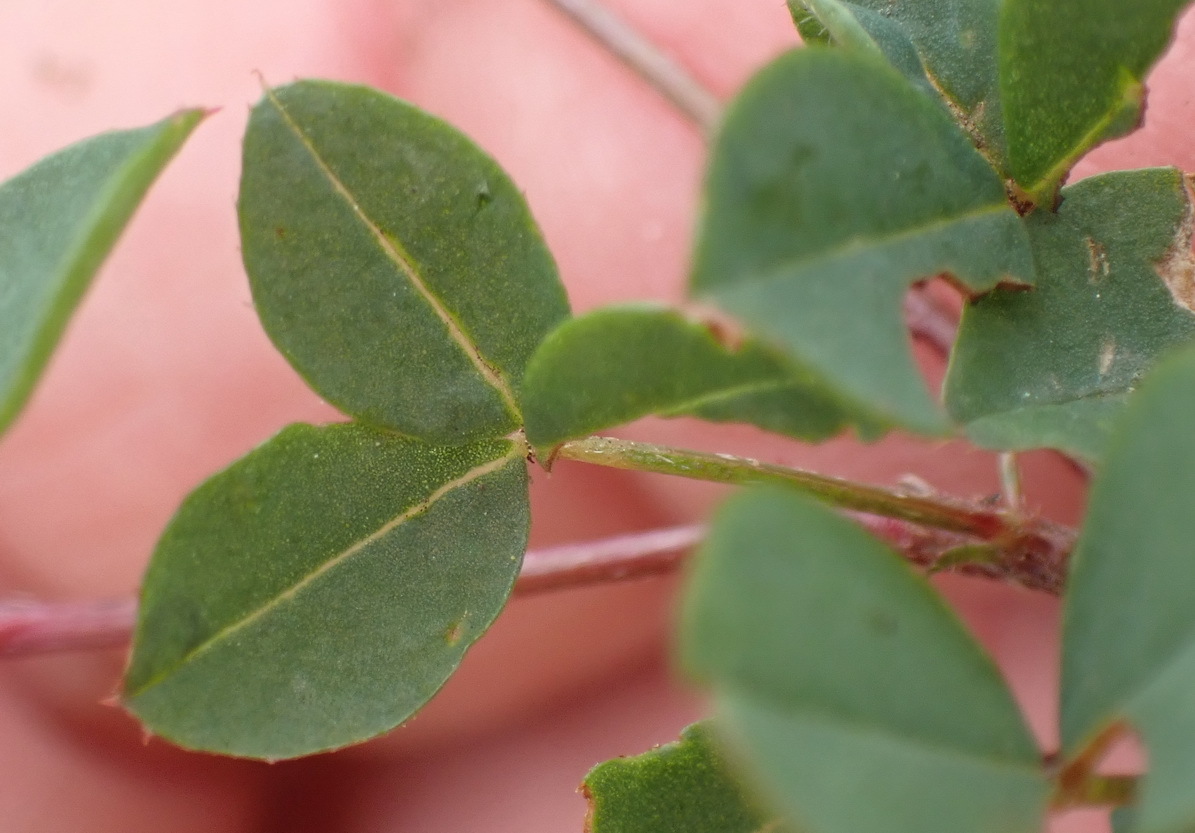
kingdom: Plantae
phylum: Tracheophyta
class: Magnoliopsida
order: Fabales
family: Fabaceae
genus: Indigofera
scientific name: Indigofera erecta
